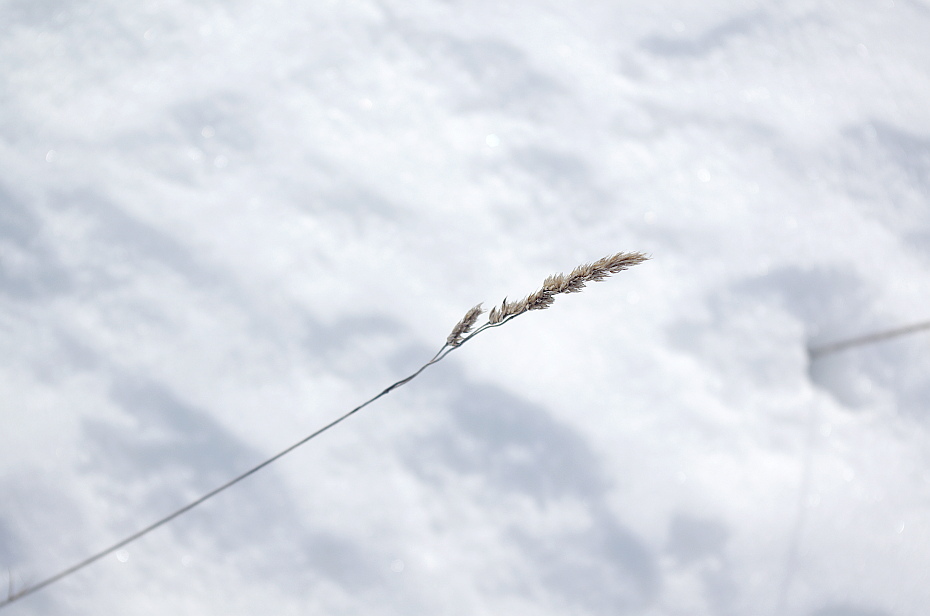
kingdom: Plantae
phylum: Tracheophyta
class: Liliopsida
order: Poales
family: Poaceae
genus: Dactylis
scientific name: Dactylis glomerata
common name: Orchardgrass
